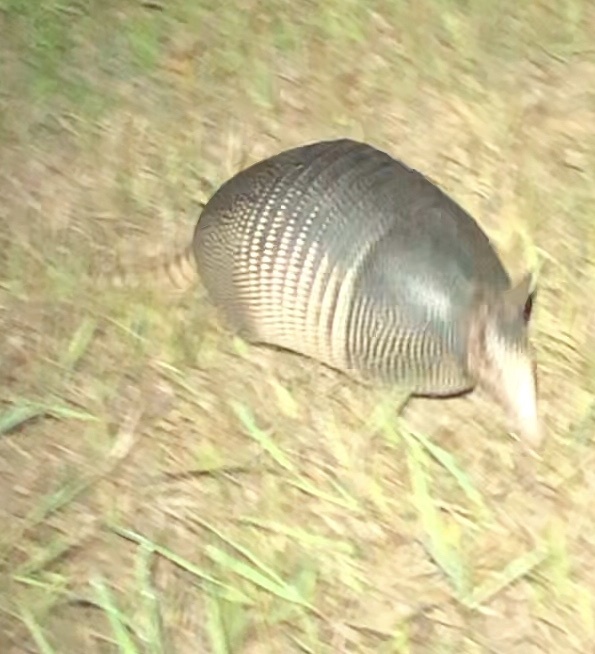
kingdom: Animalia
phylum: Chordata
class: Mammalia
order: Cingulata
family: Dasypodidae
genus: Dasypus
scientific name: Dasypus novemcinctus
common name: Nine-banded armadillo
